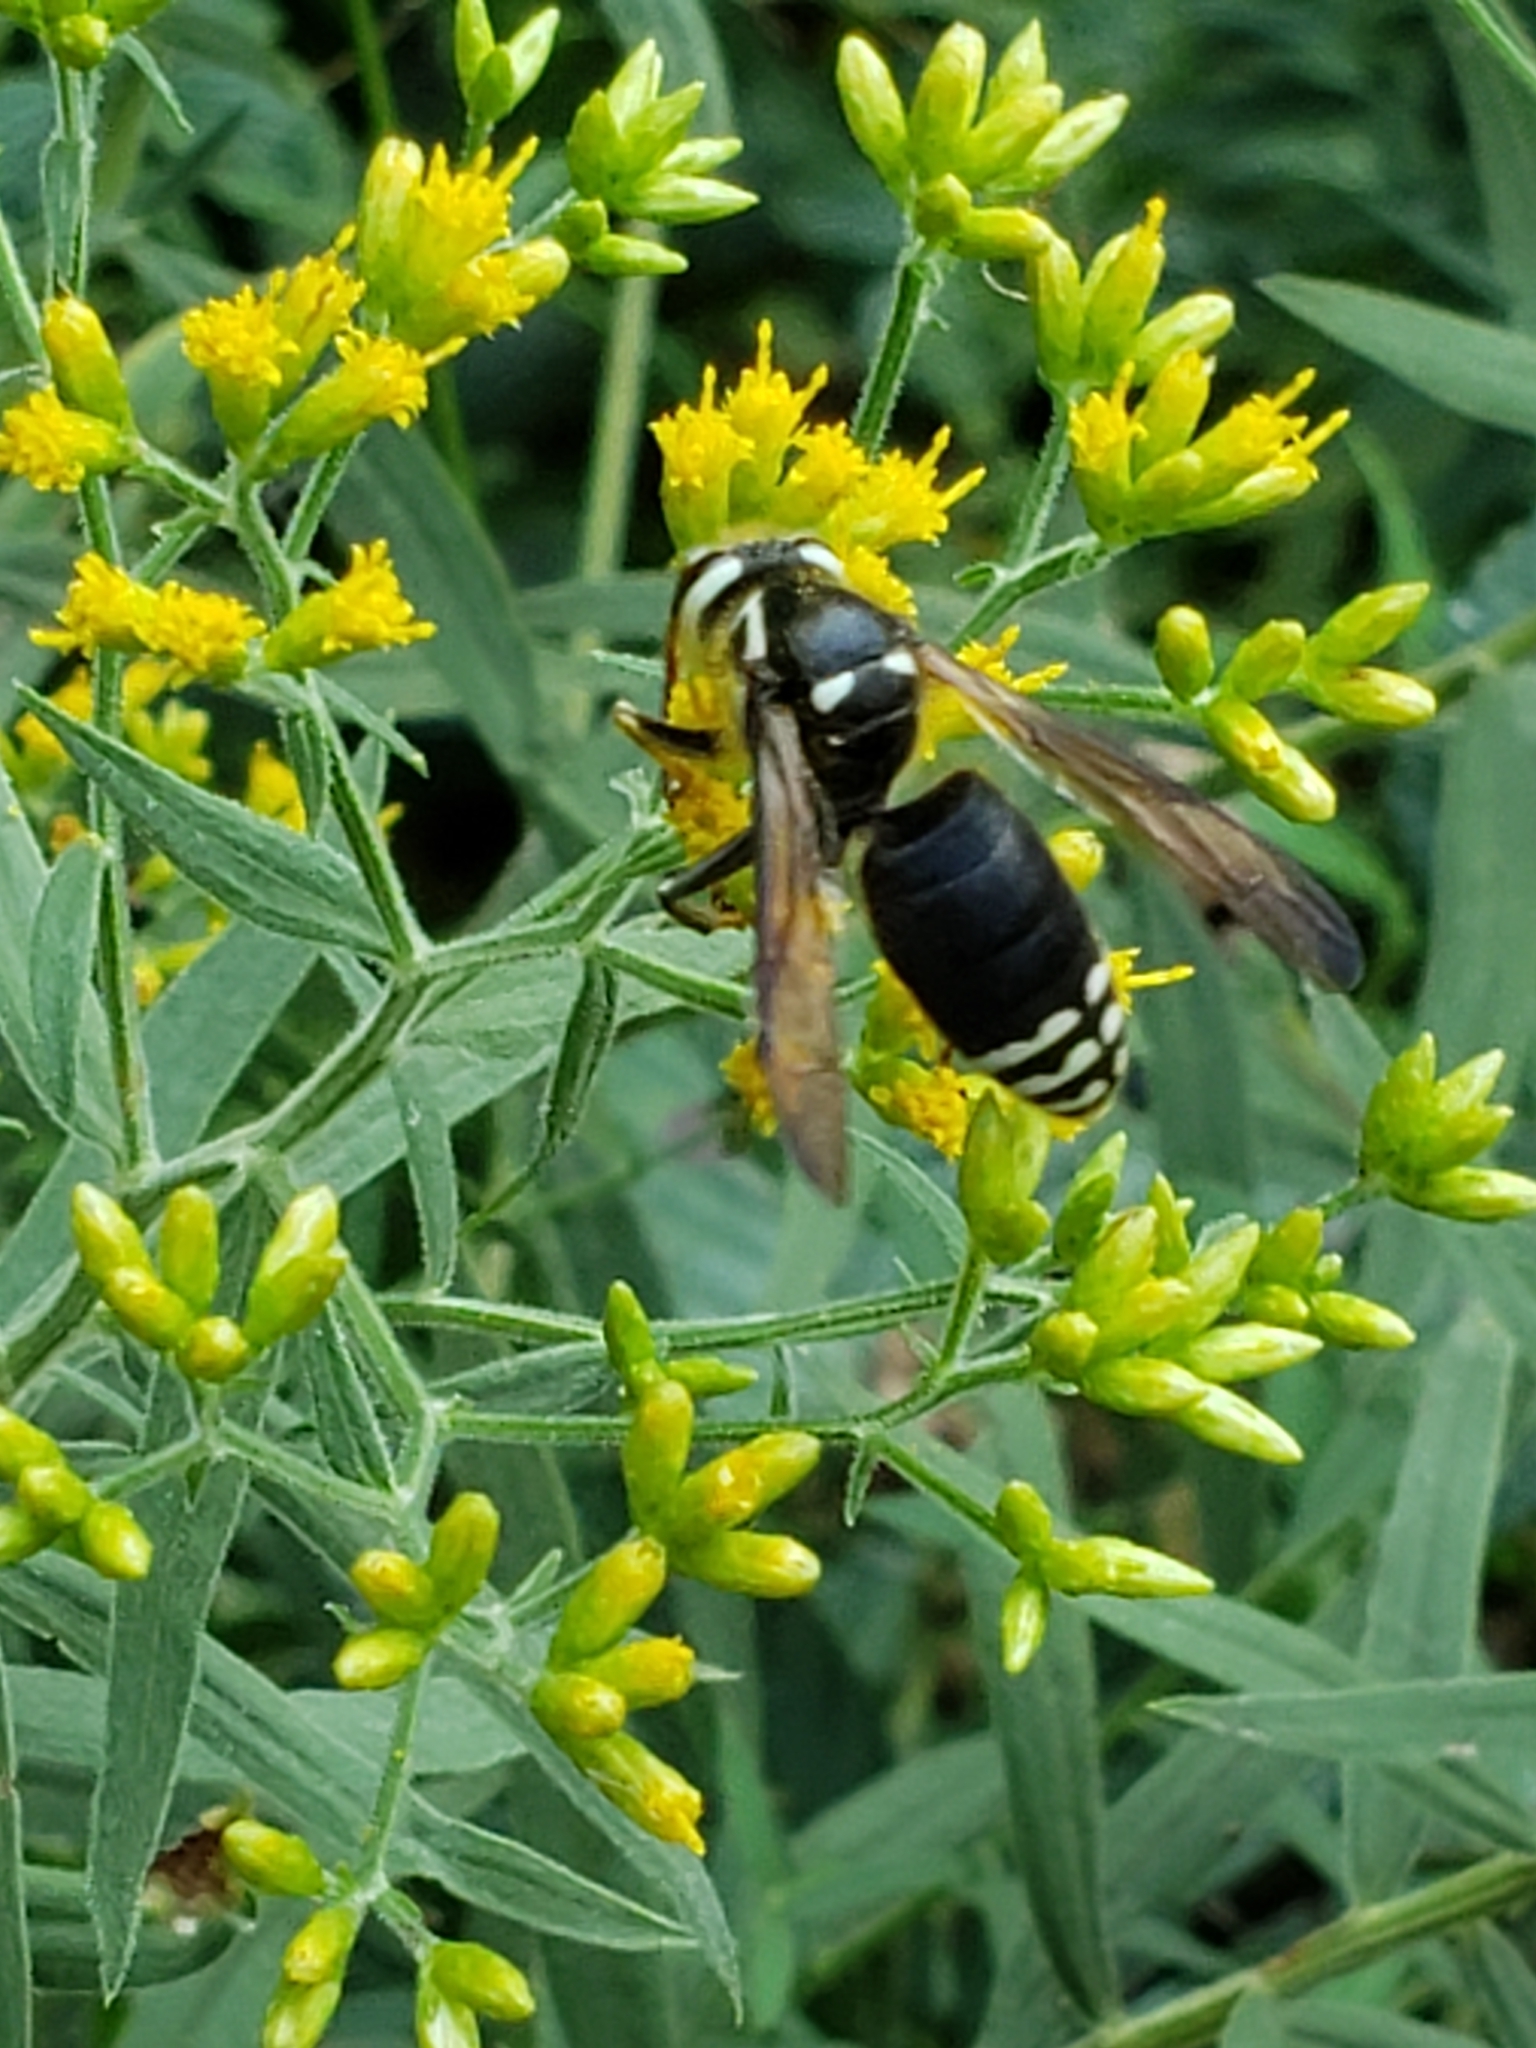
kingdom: Animalia
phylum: Arthropoda
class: Insecta
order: Hymenoptera
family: Vespidae
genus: Dolichovespula
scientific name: Dolichovespula maculata
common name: Bald-faced hornet
